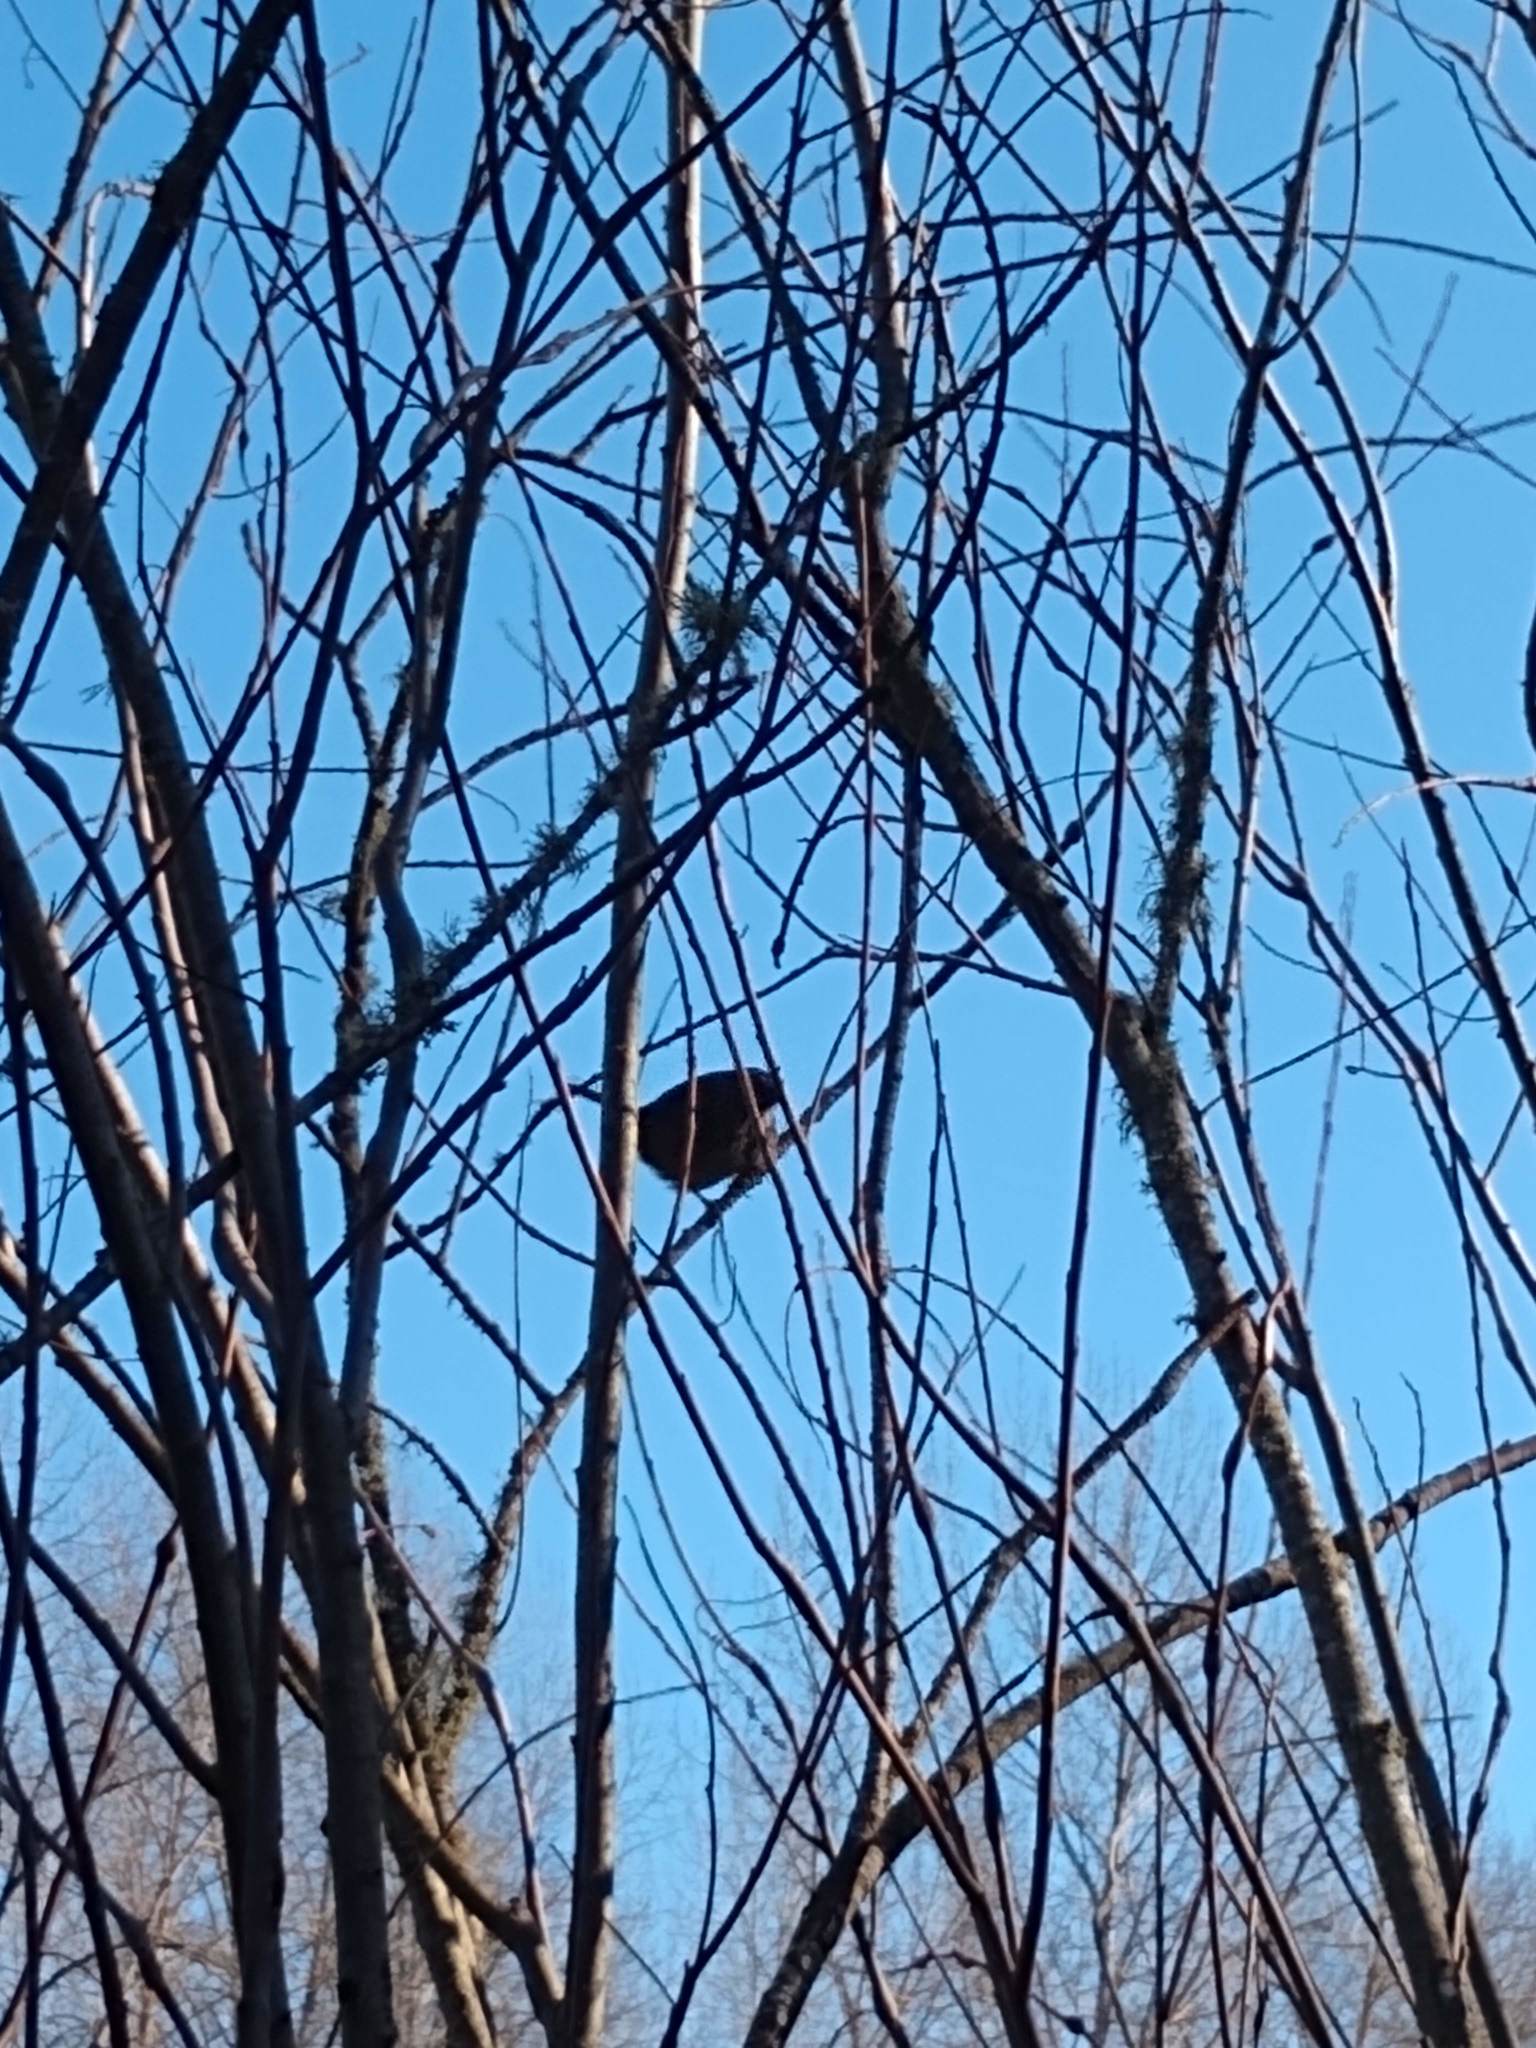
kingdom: Animalia
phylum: Chordata
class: Aves
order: Passeriformes
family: Passerellidae
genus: Melospiza
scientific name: Melospiza melodia
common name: Song sparrow
